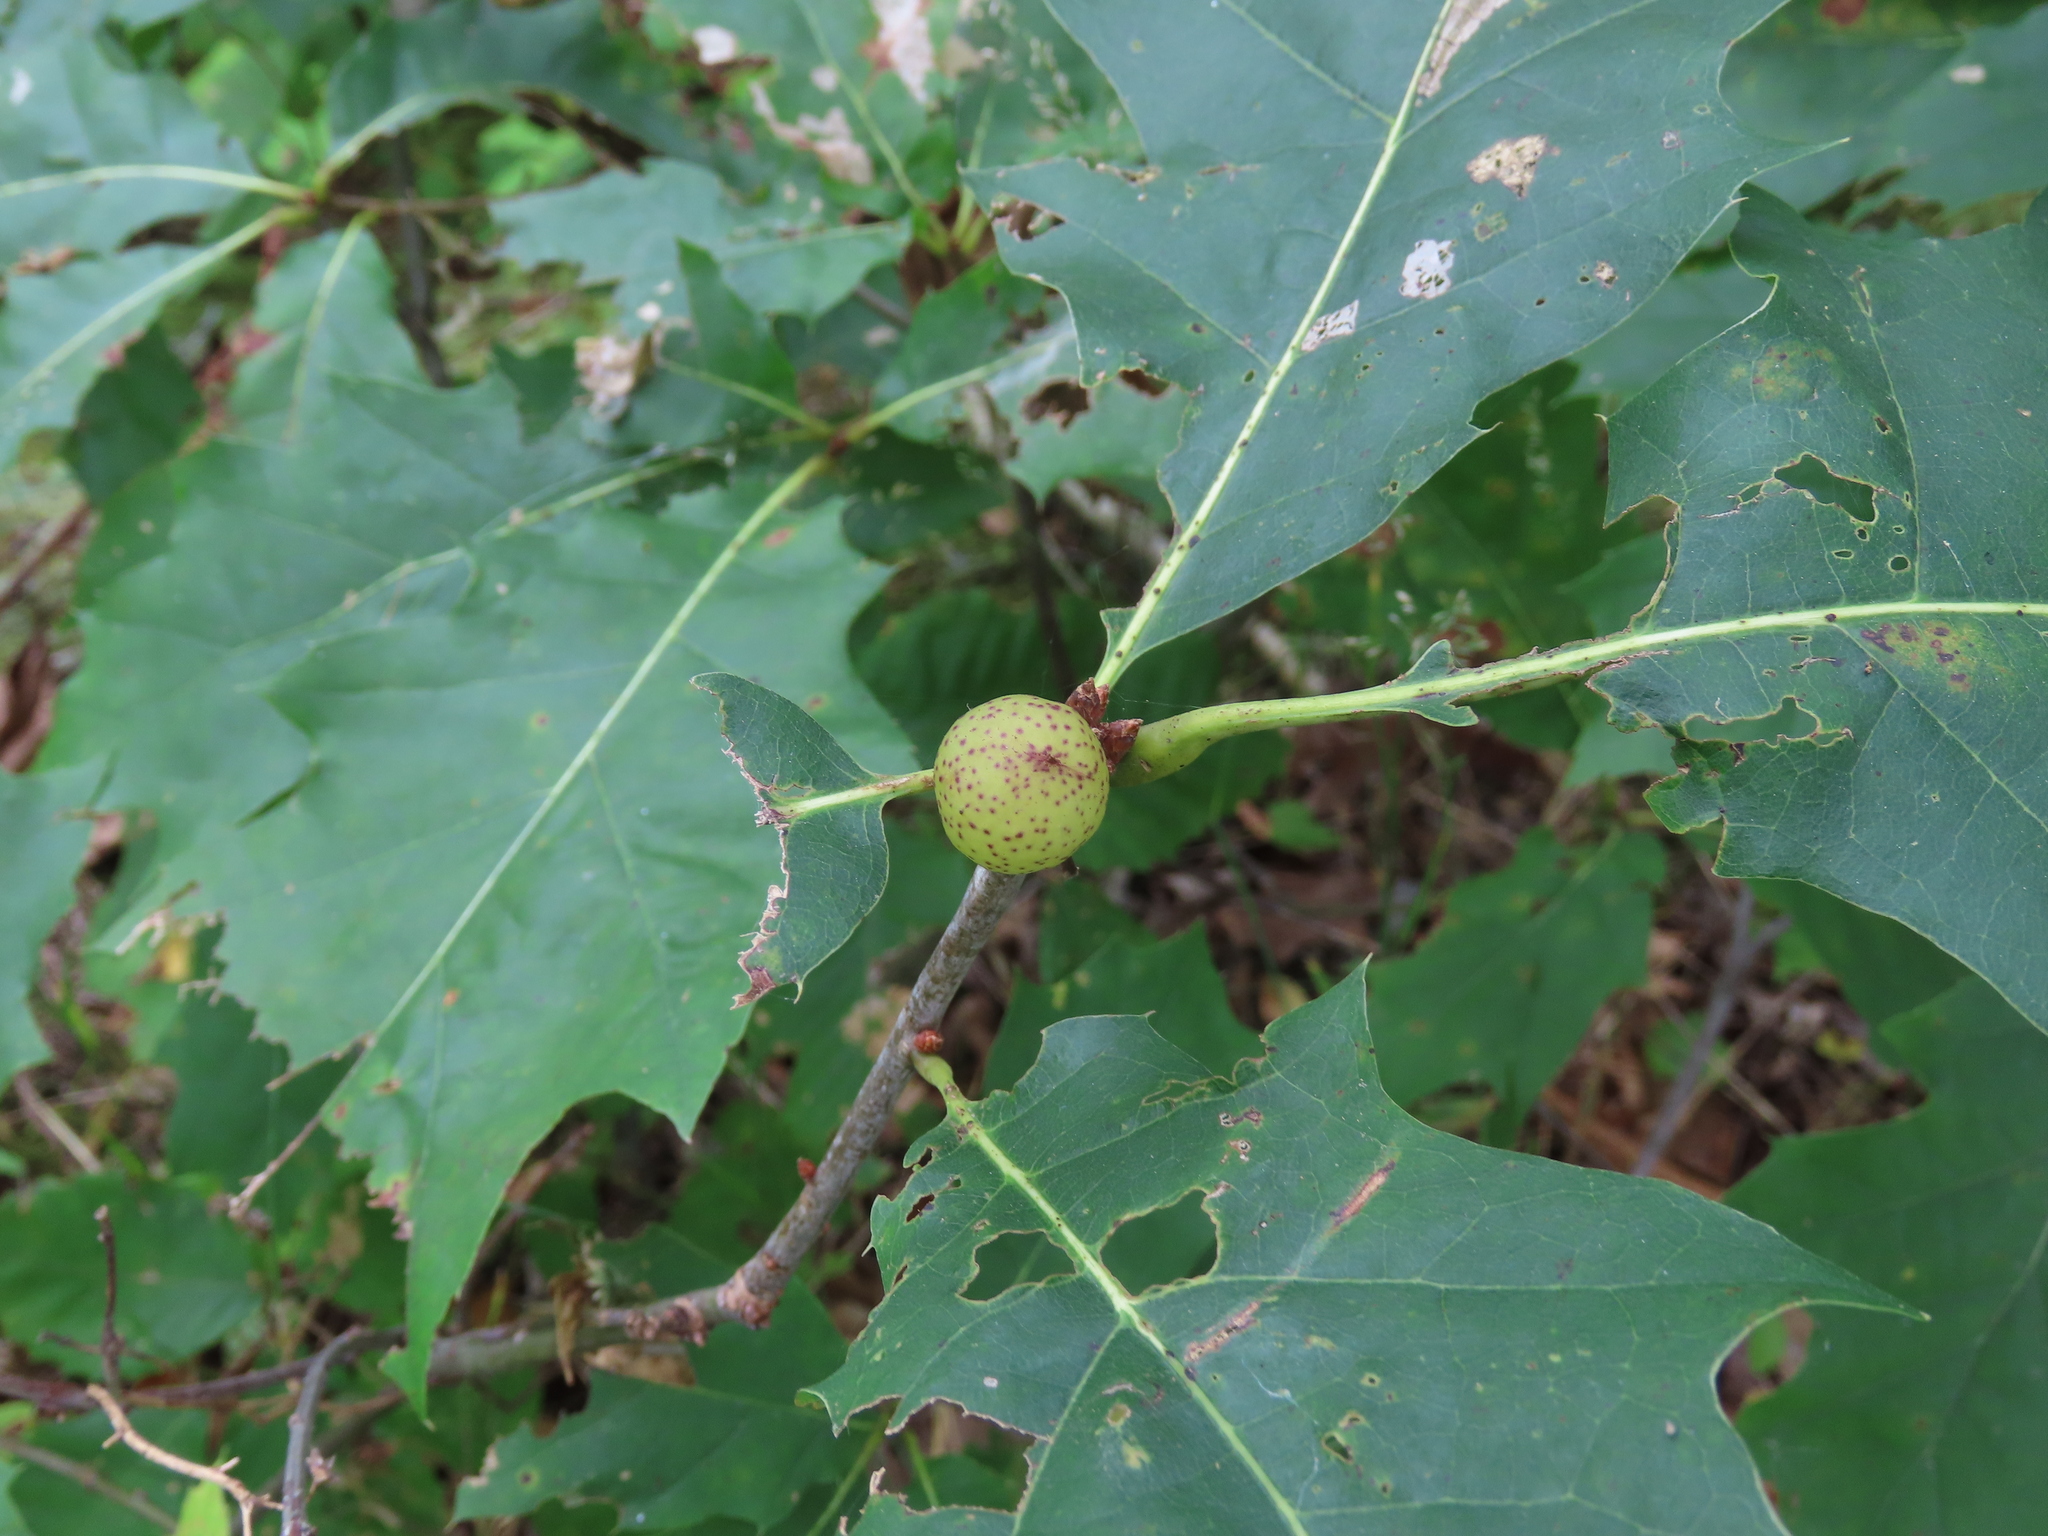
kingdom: Animalia
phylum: Arthropoda
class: Insecta
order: Hymenoptera
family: Cynipidae
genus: Amphibolips
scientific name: Amphibolips
